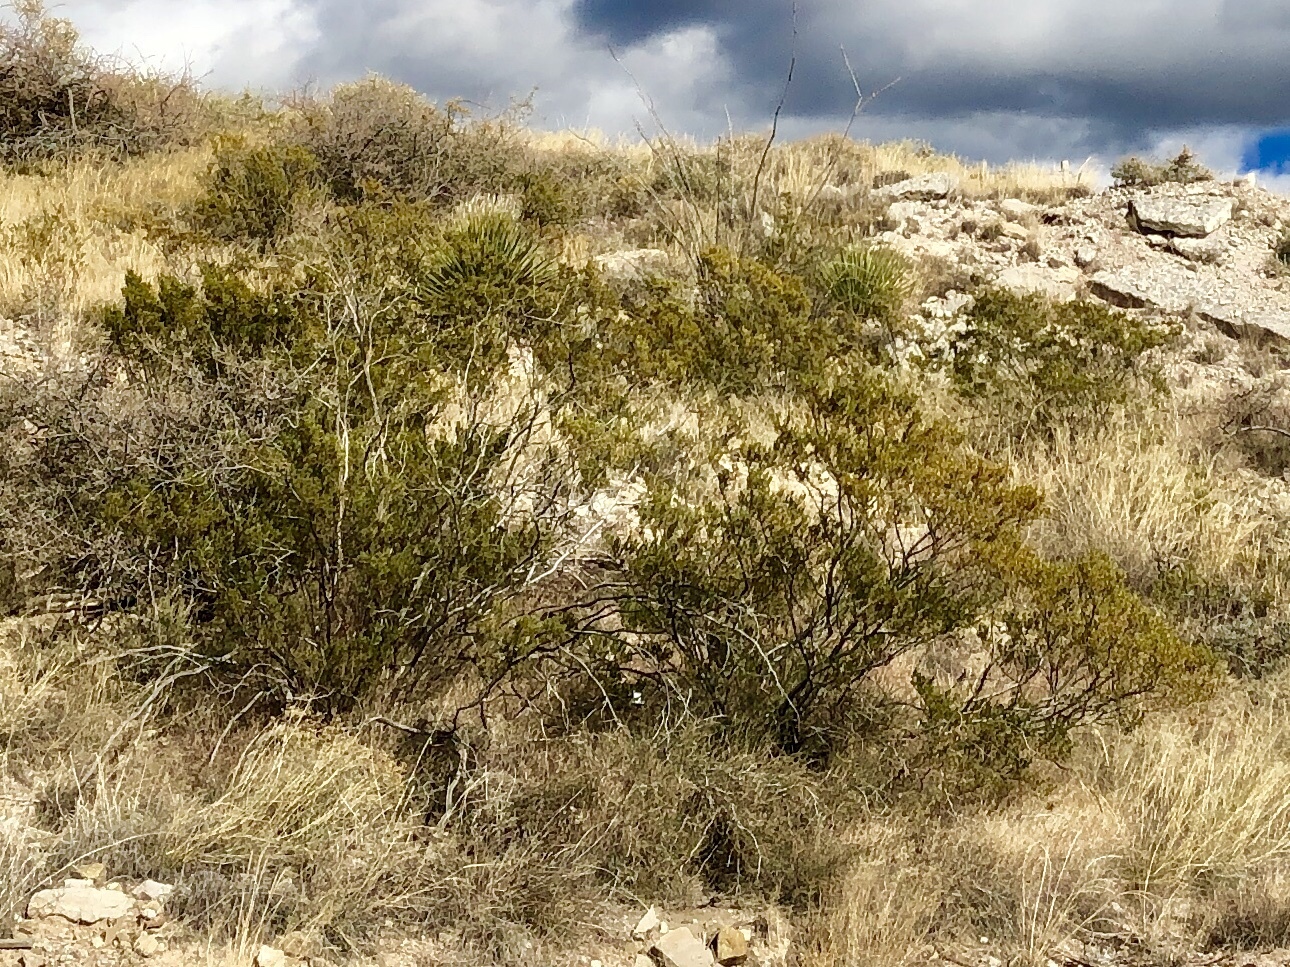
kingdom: Plantae
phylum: Tracheophyta
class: Magnoliopsida
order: Zygophyllales
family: Zygophyllaceae
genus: Larrea
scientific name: Larrea tridentata
